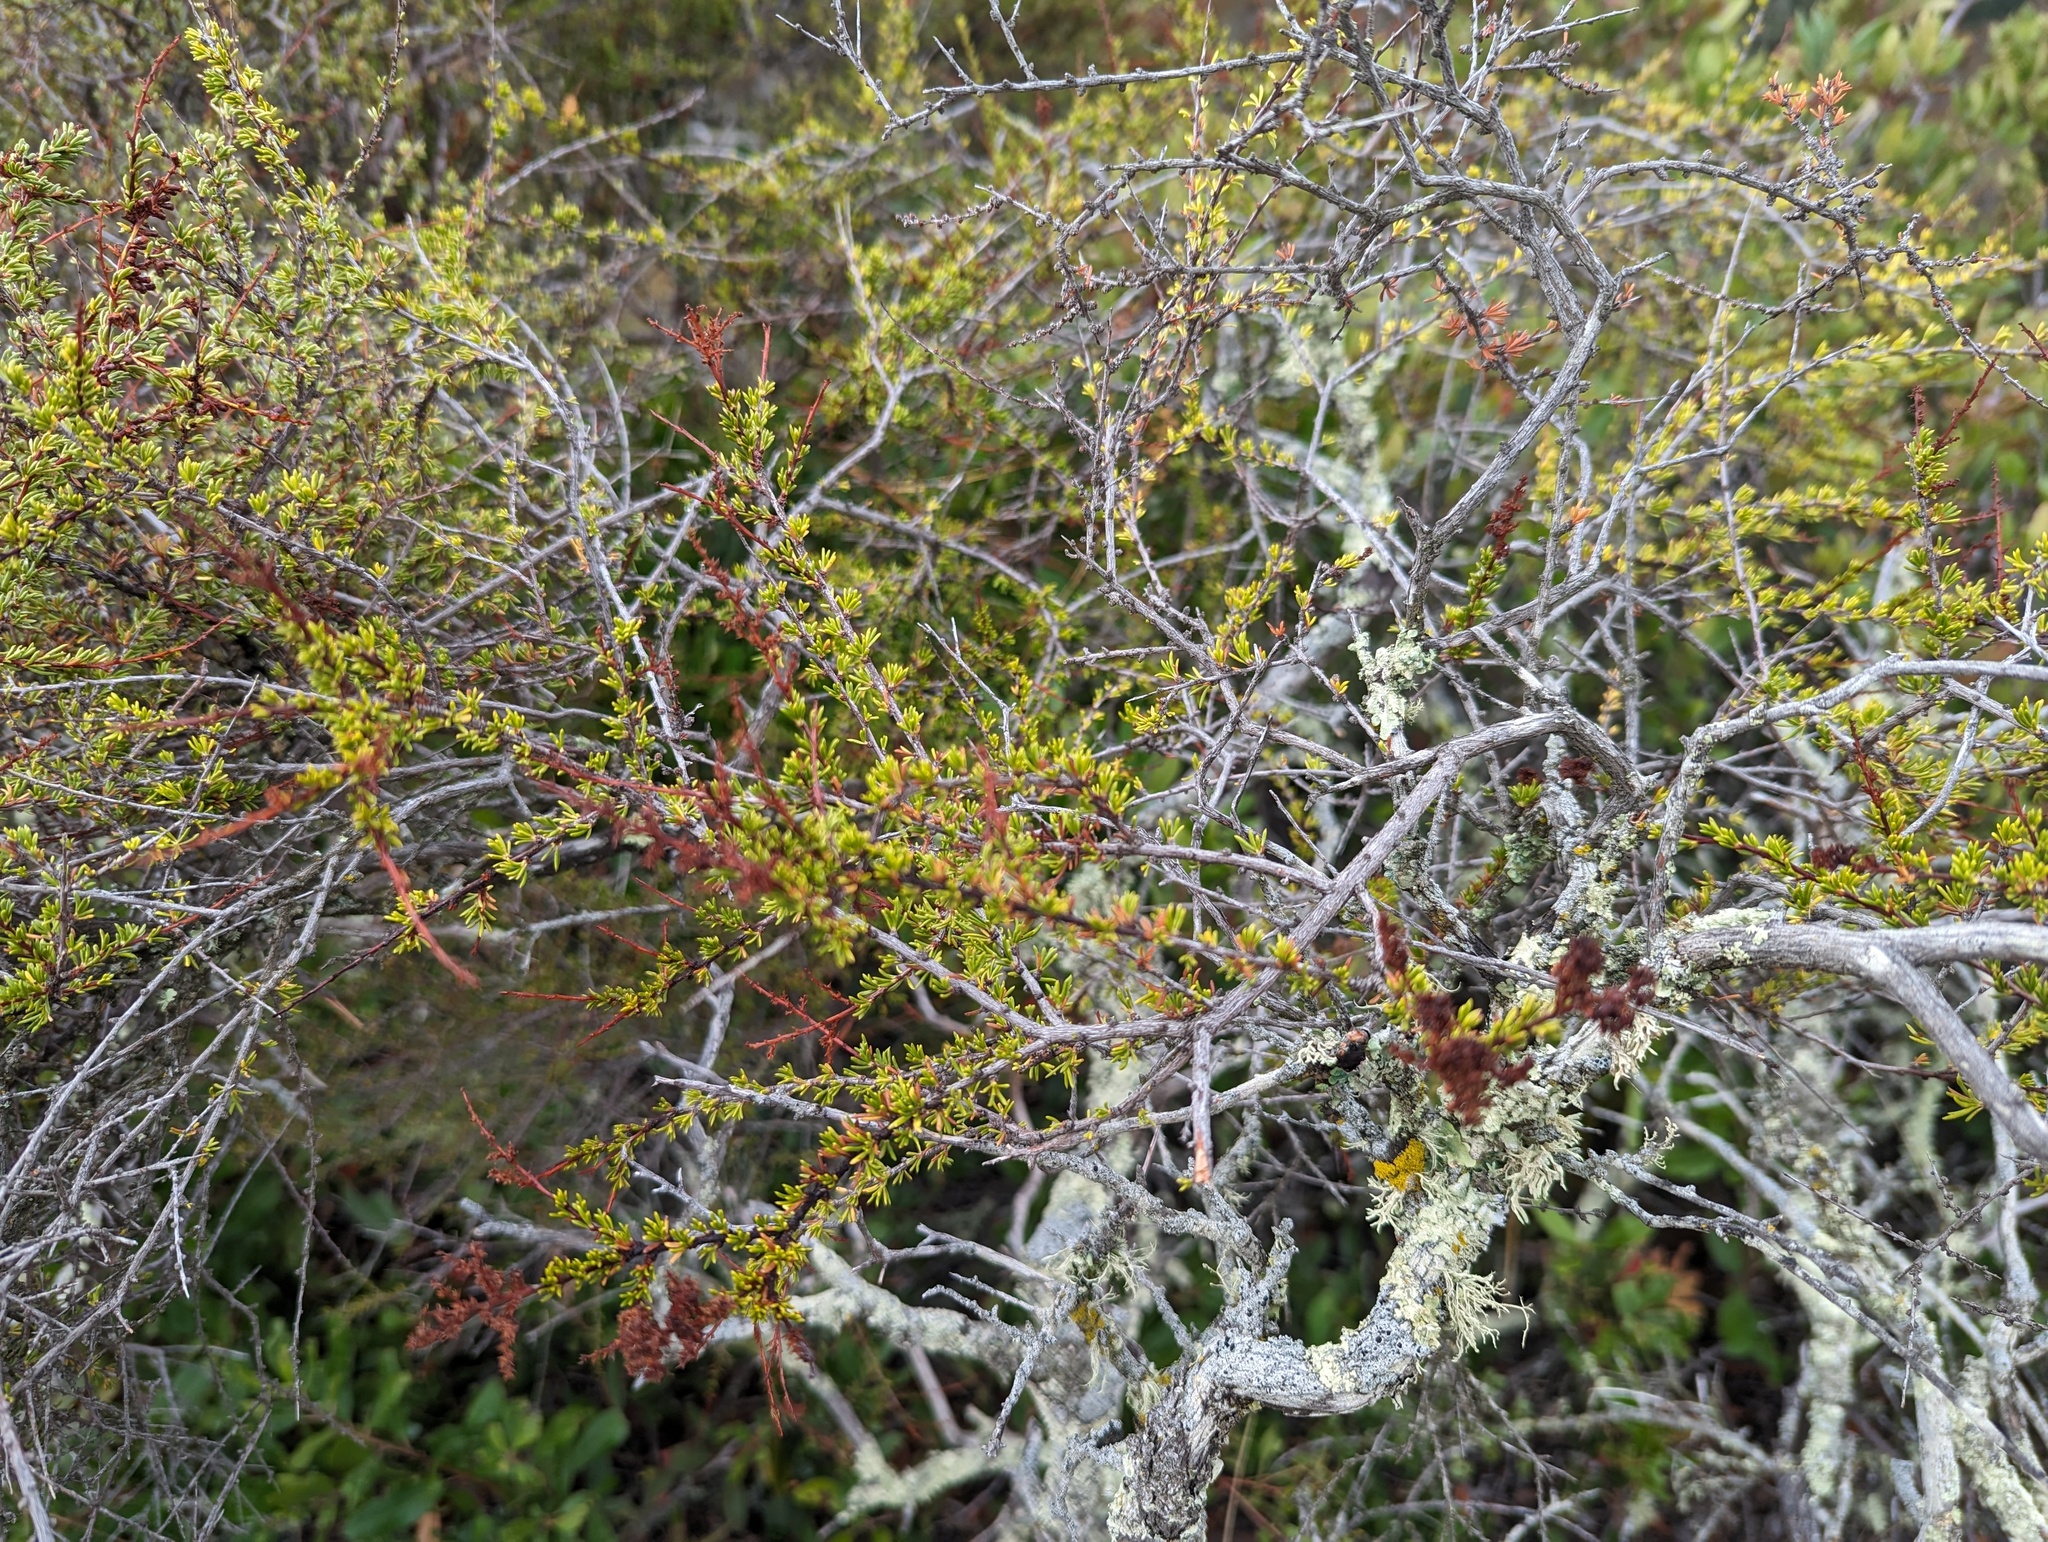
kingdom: Plantae
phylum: Tracheophyta
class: Magnoliopsida
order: Rosales
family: Rosaceae
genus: Adenostoma
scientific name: Adenostoma fasciculatum
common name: Chamise
